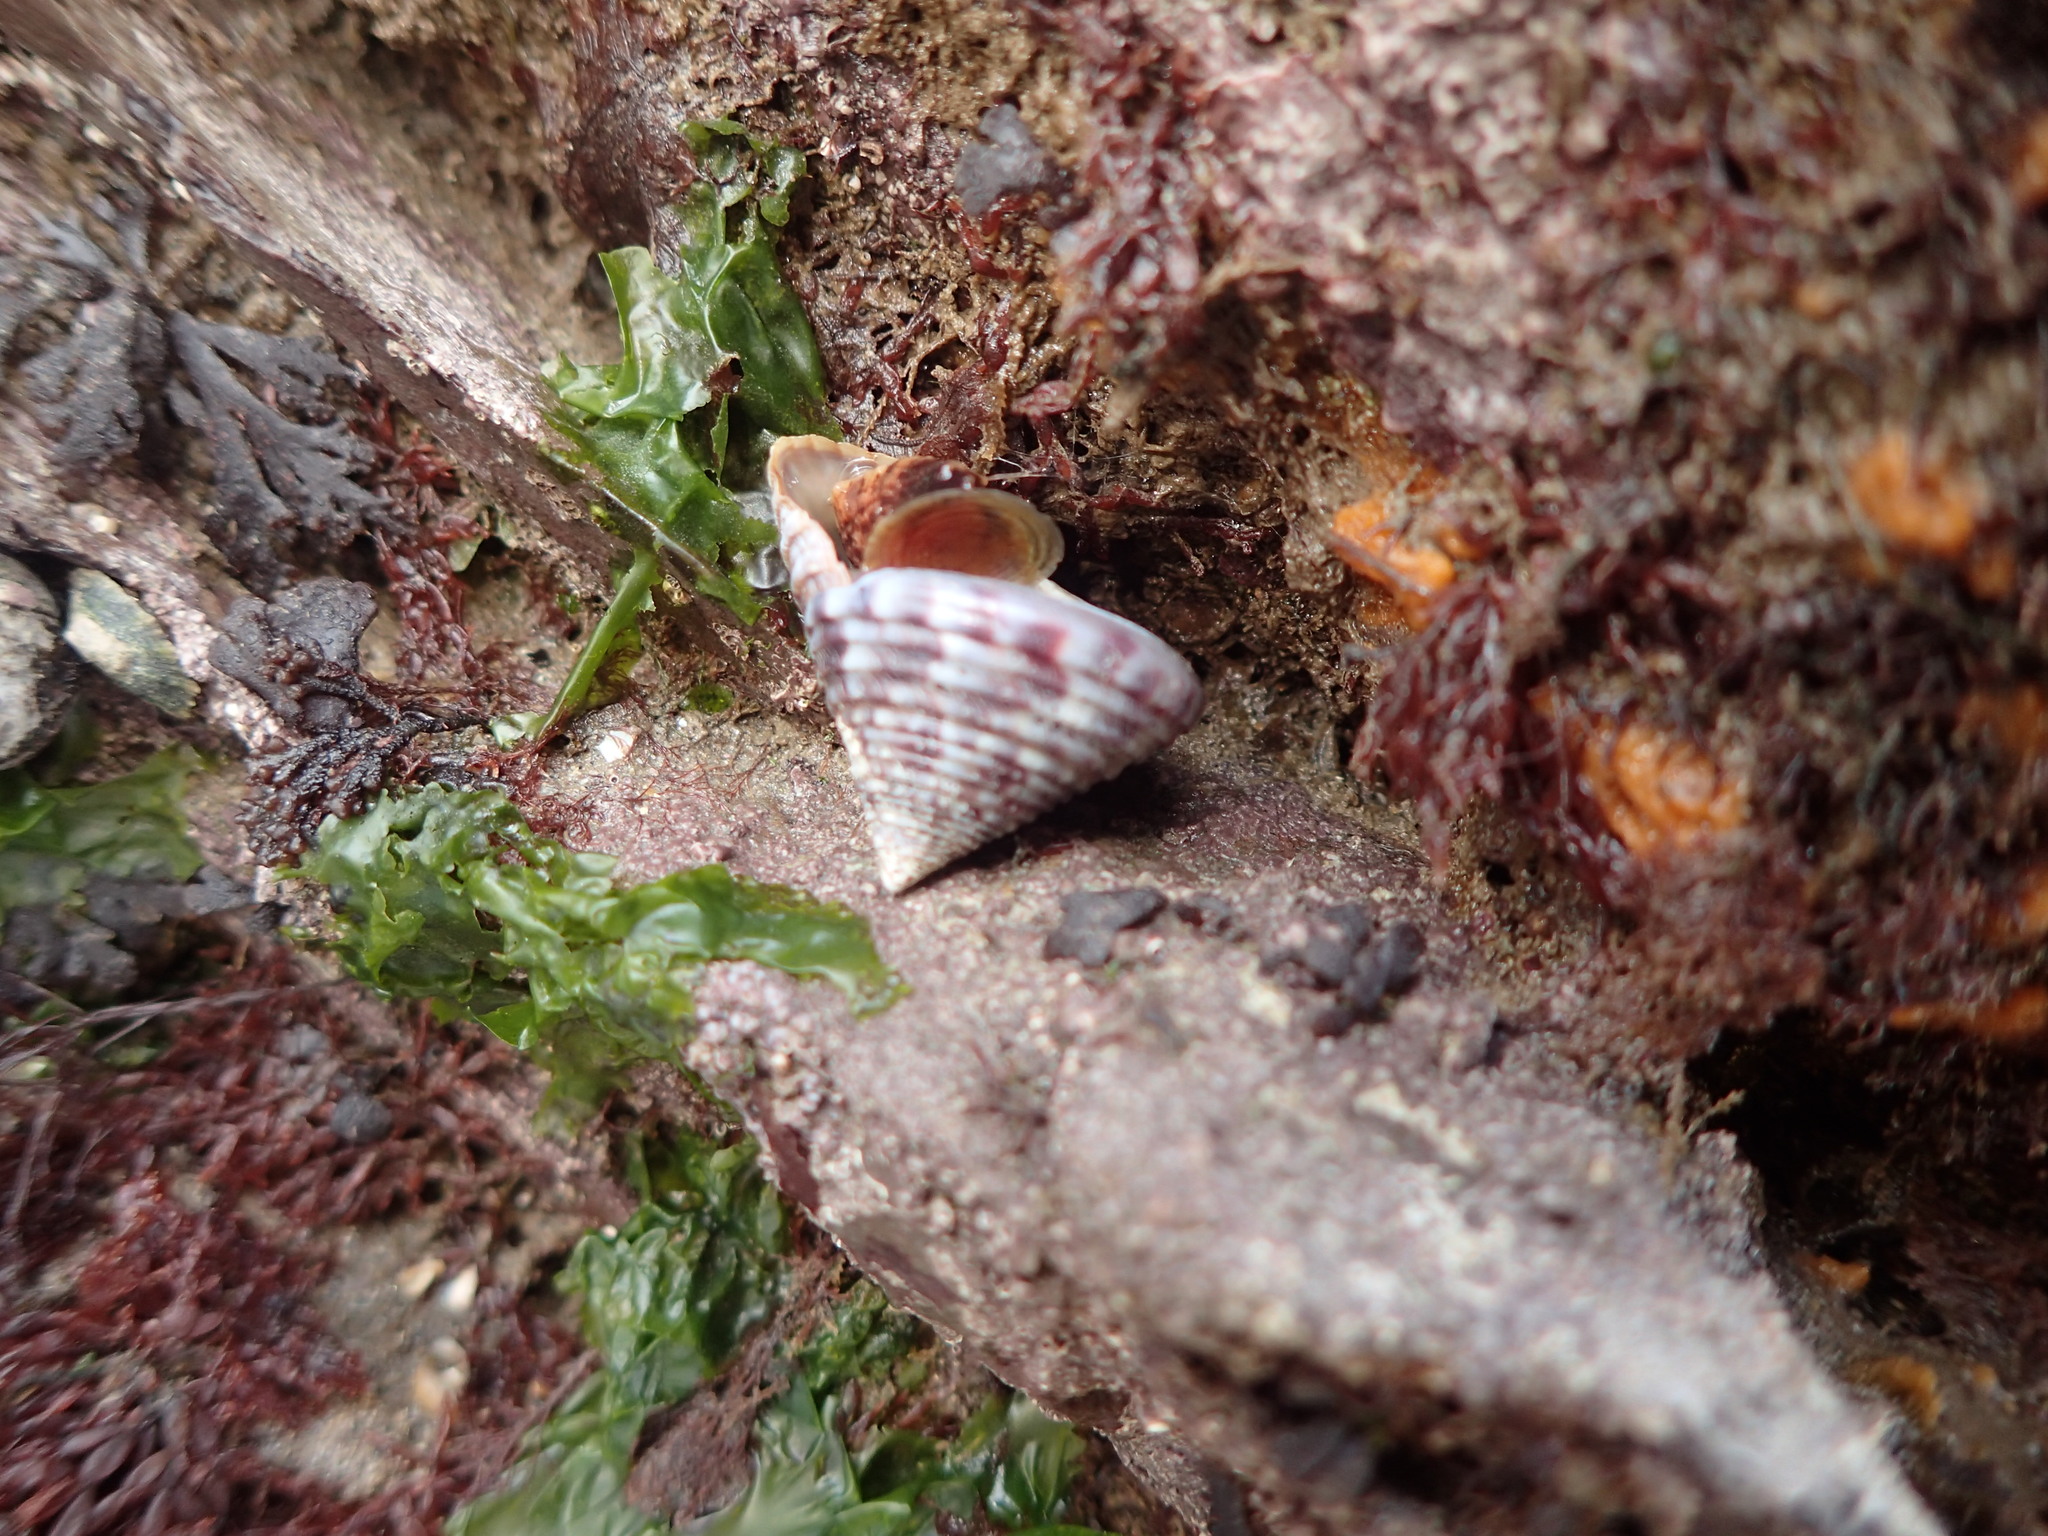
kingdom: Animalia
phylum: Mollusca
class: Gastropoda
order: Trochida
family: Calliostomatidae
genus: Calliostoma
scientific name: Calliostoma zizyphinum
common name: Painted top shell
